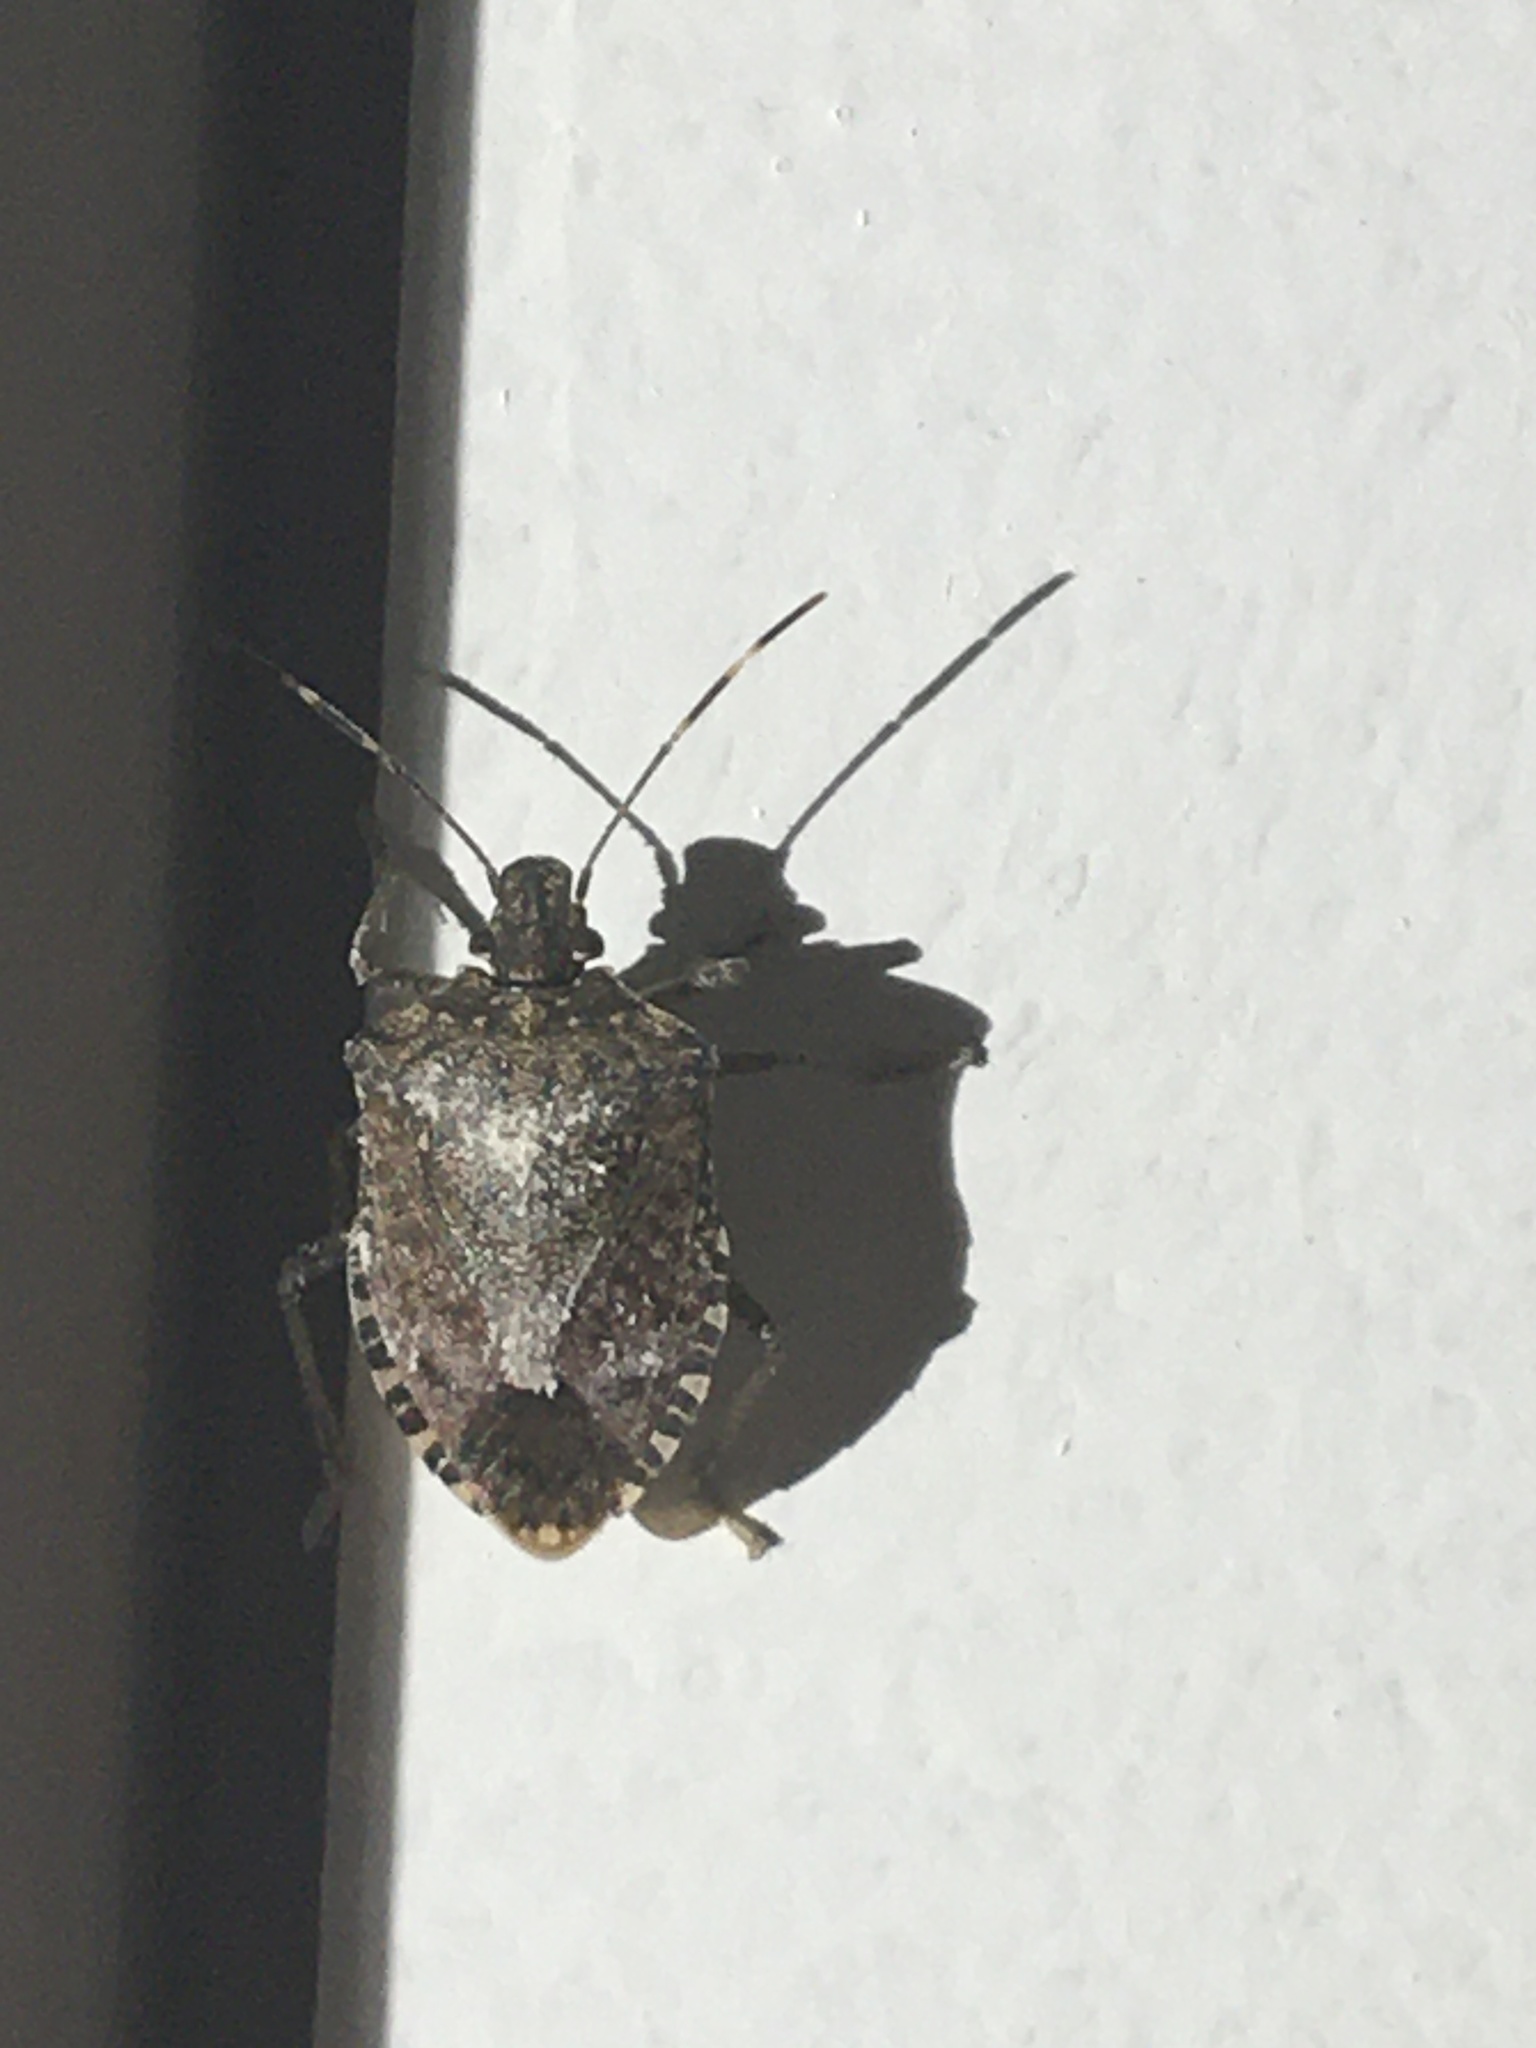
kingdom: Animalia
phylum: Arthropoda
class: Insecta
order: Hemiptera
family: Pentatomidae
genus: Halyomorpha
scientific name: Halyomorpha halys
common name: Brown marmorated stink bug
